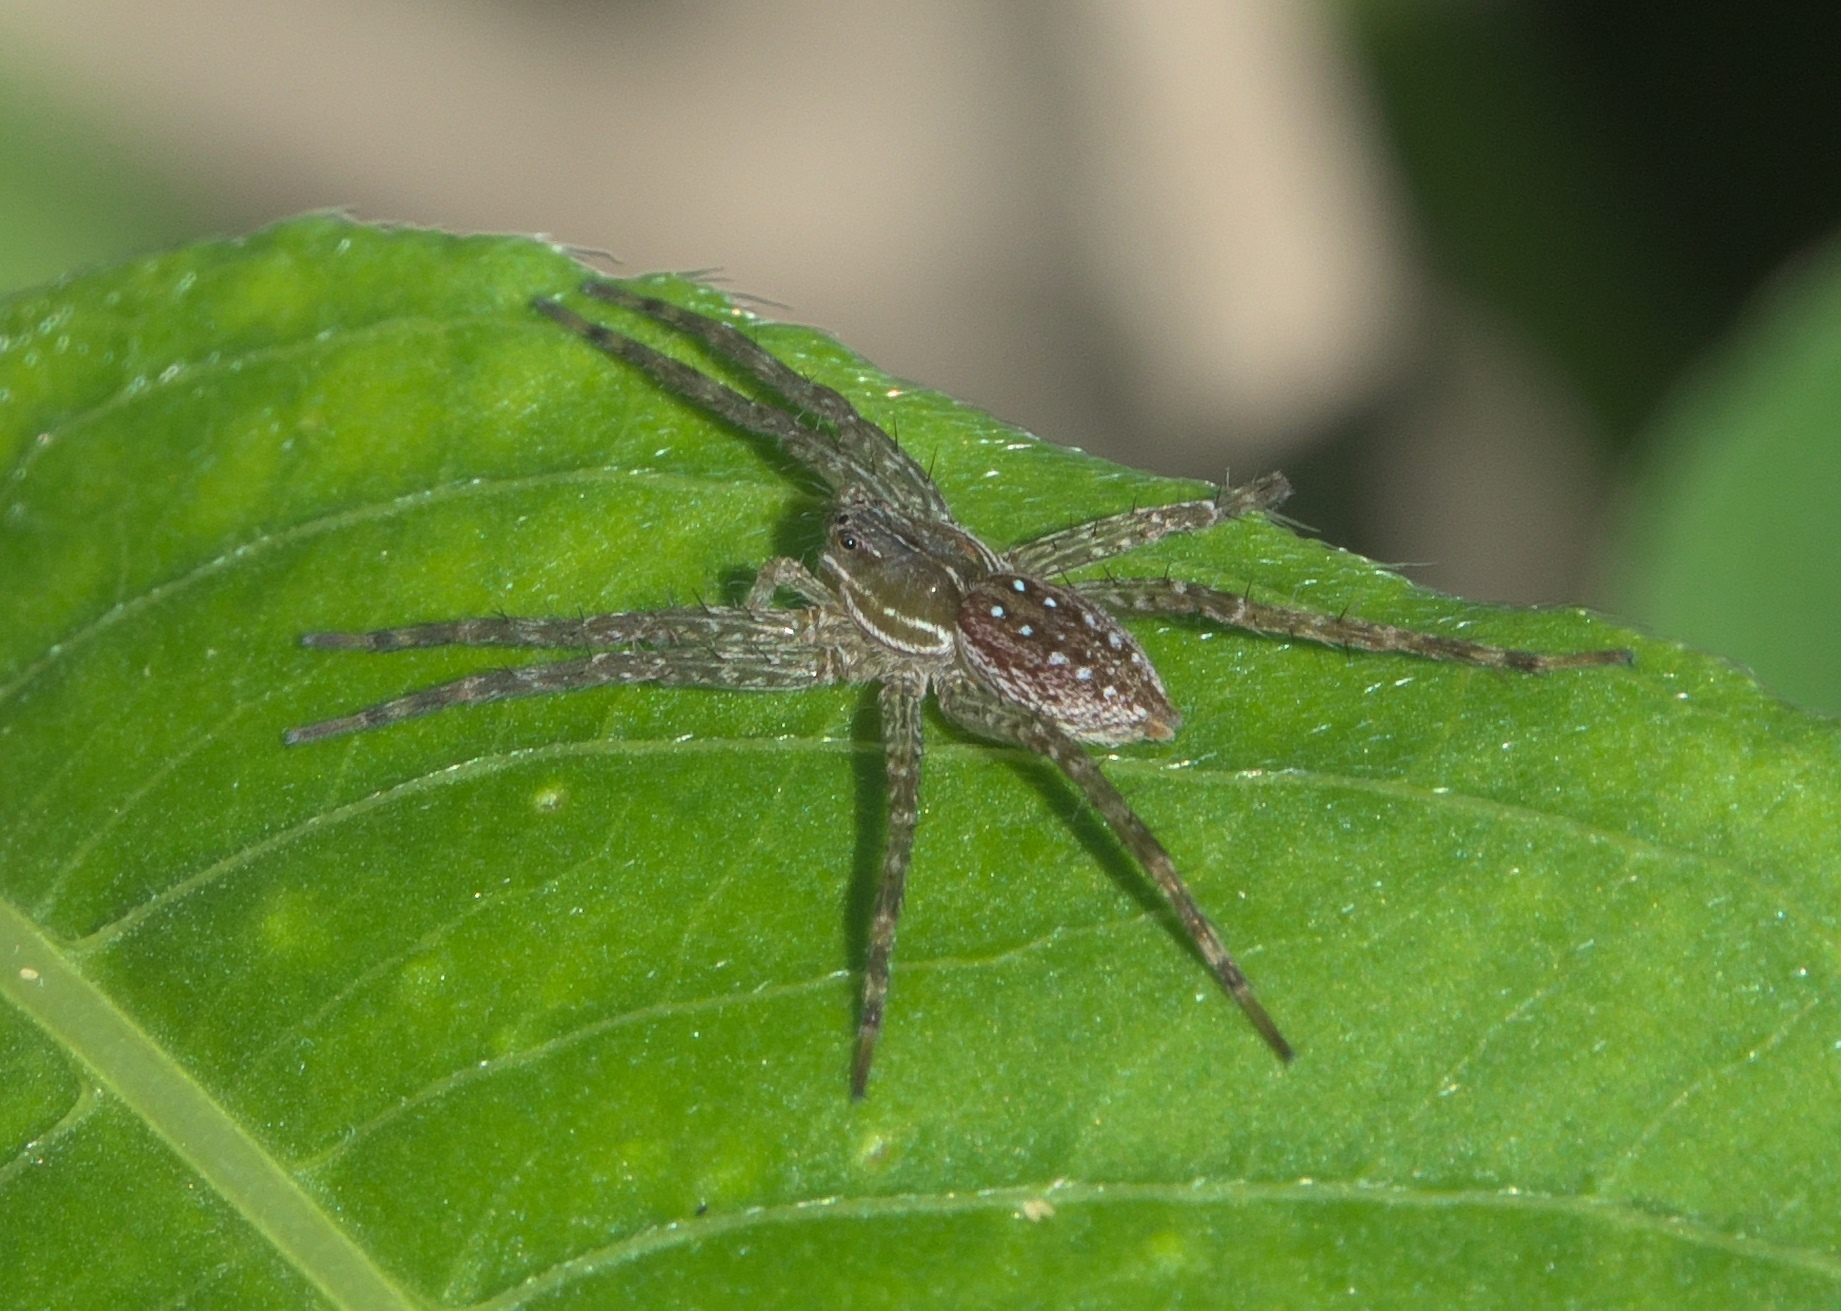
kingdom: Animalia
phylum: Arthropoda
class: Arachnida
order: Araneae
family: Pisauridae
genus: Dolomedes
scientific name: Dolomedes triton
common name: Six-spotted fishing spider
